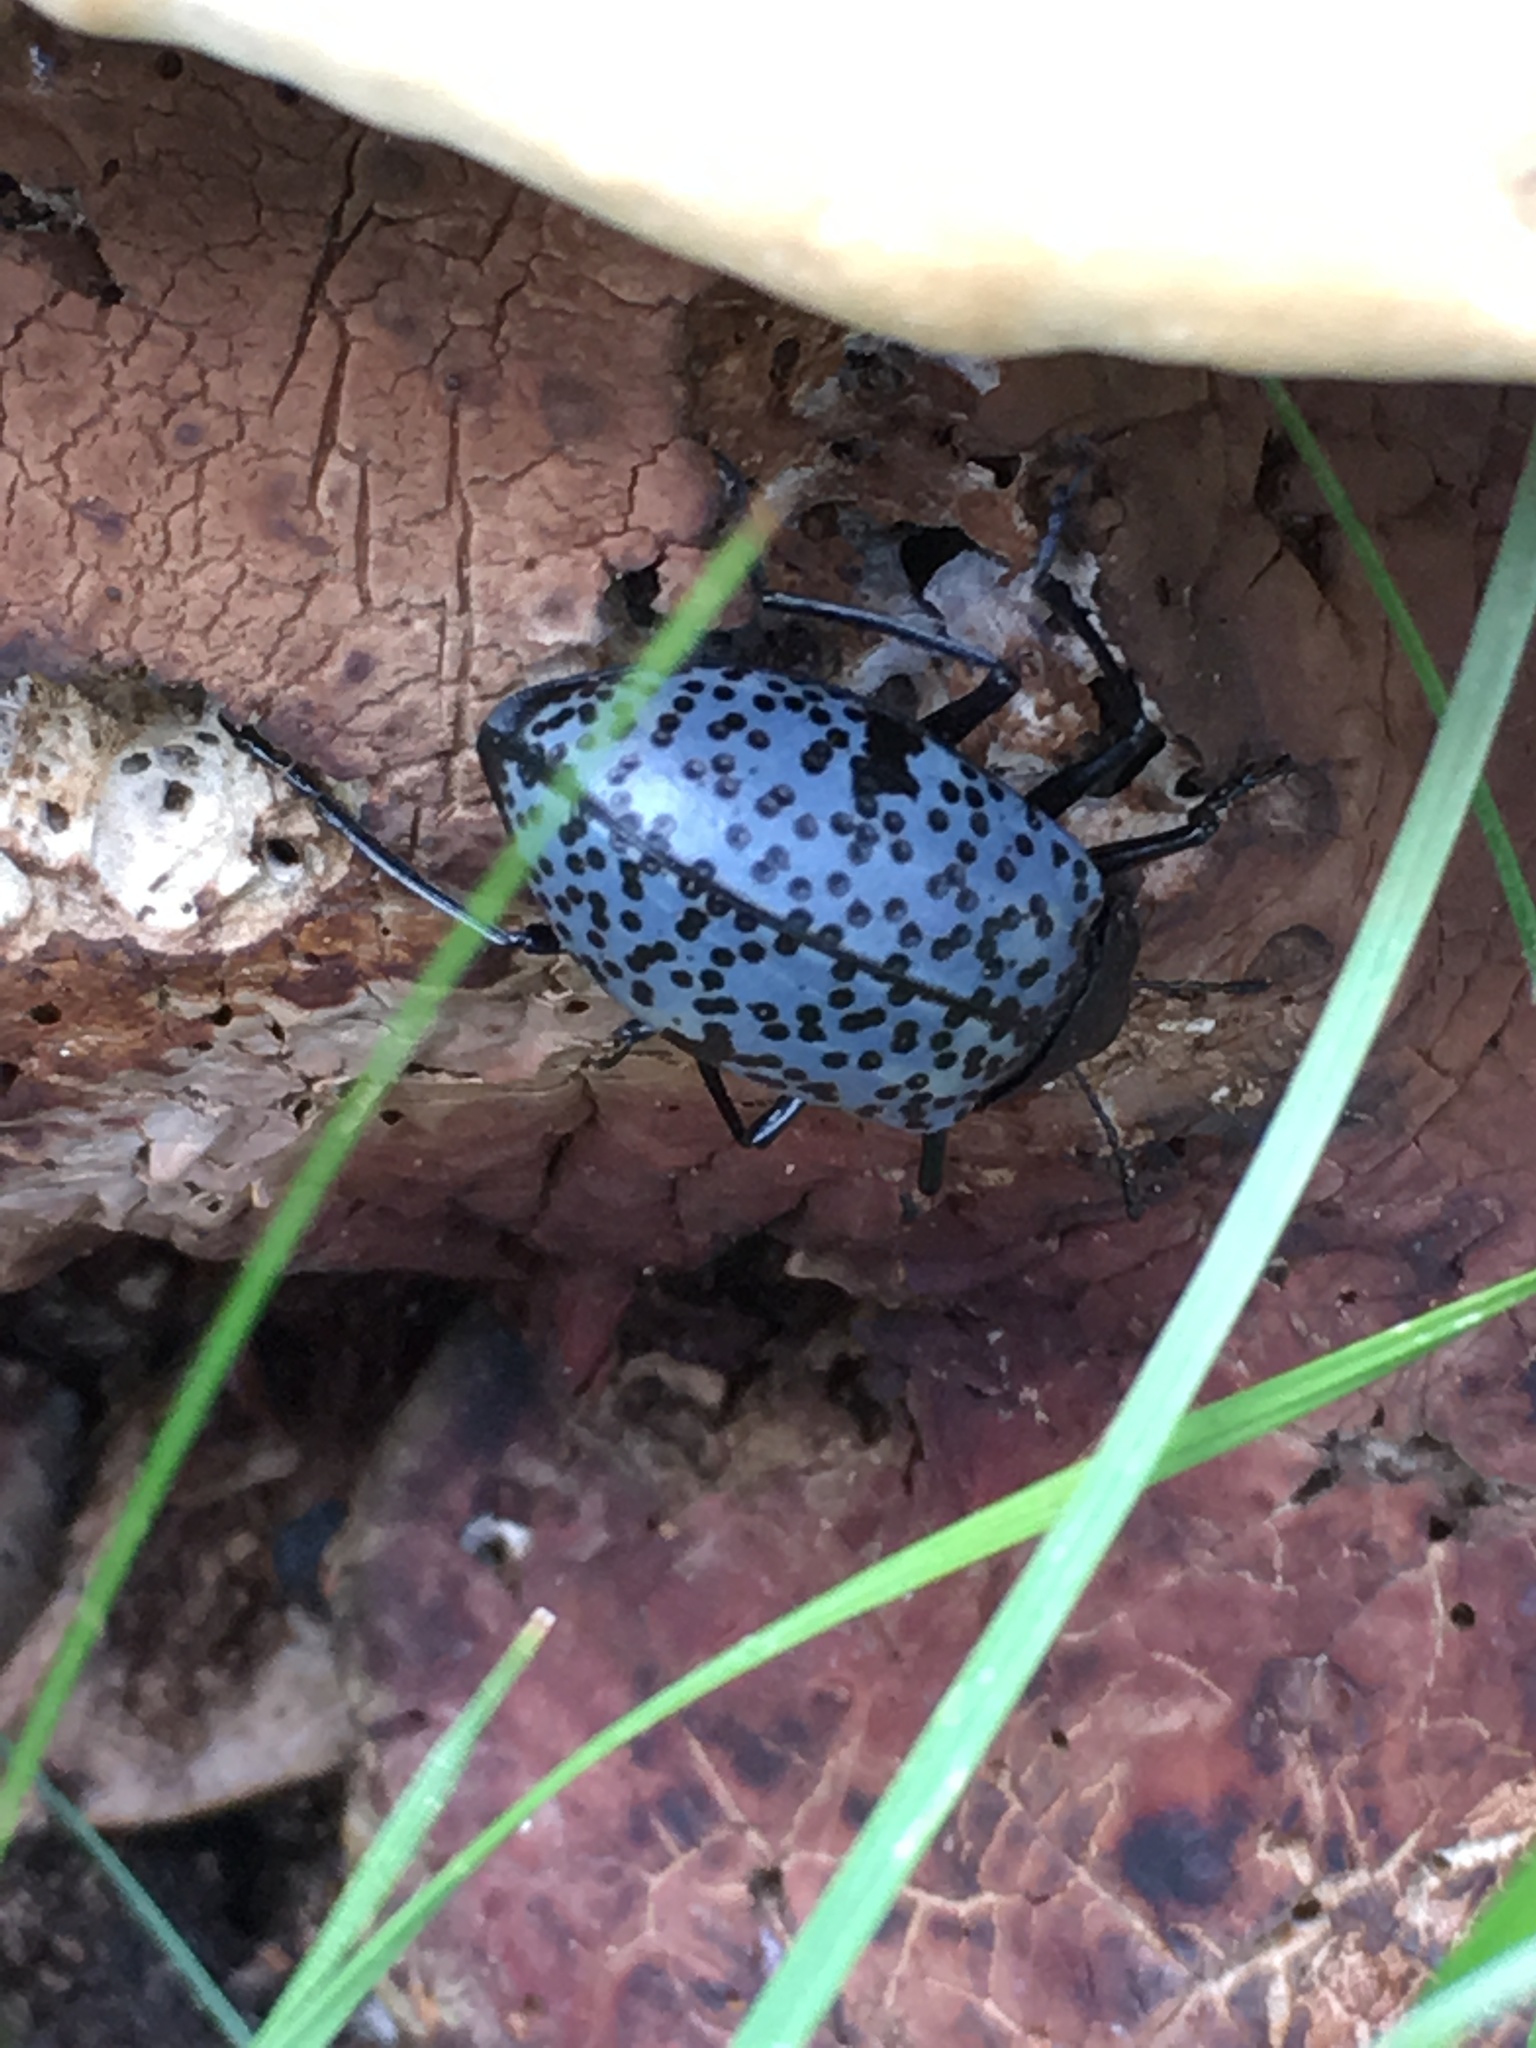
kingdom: Animalia
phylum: Arthropoda
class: Insecta
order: Coleoptera
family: Erotylidae
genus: Gibbifer
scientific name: Gibbifer californicus
